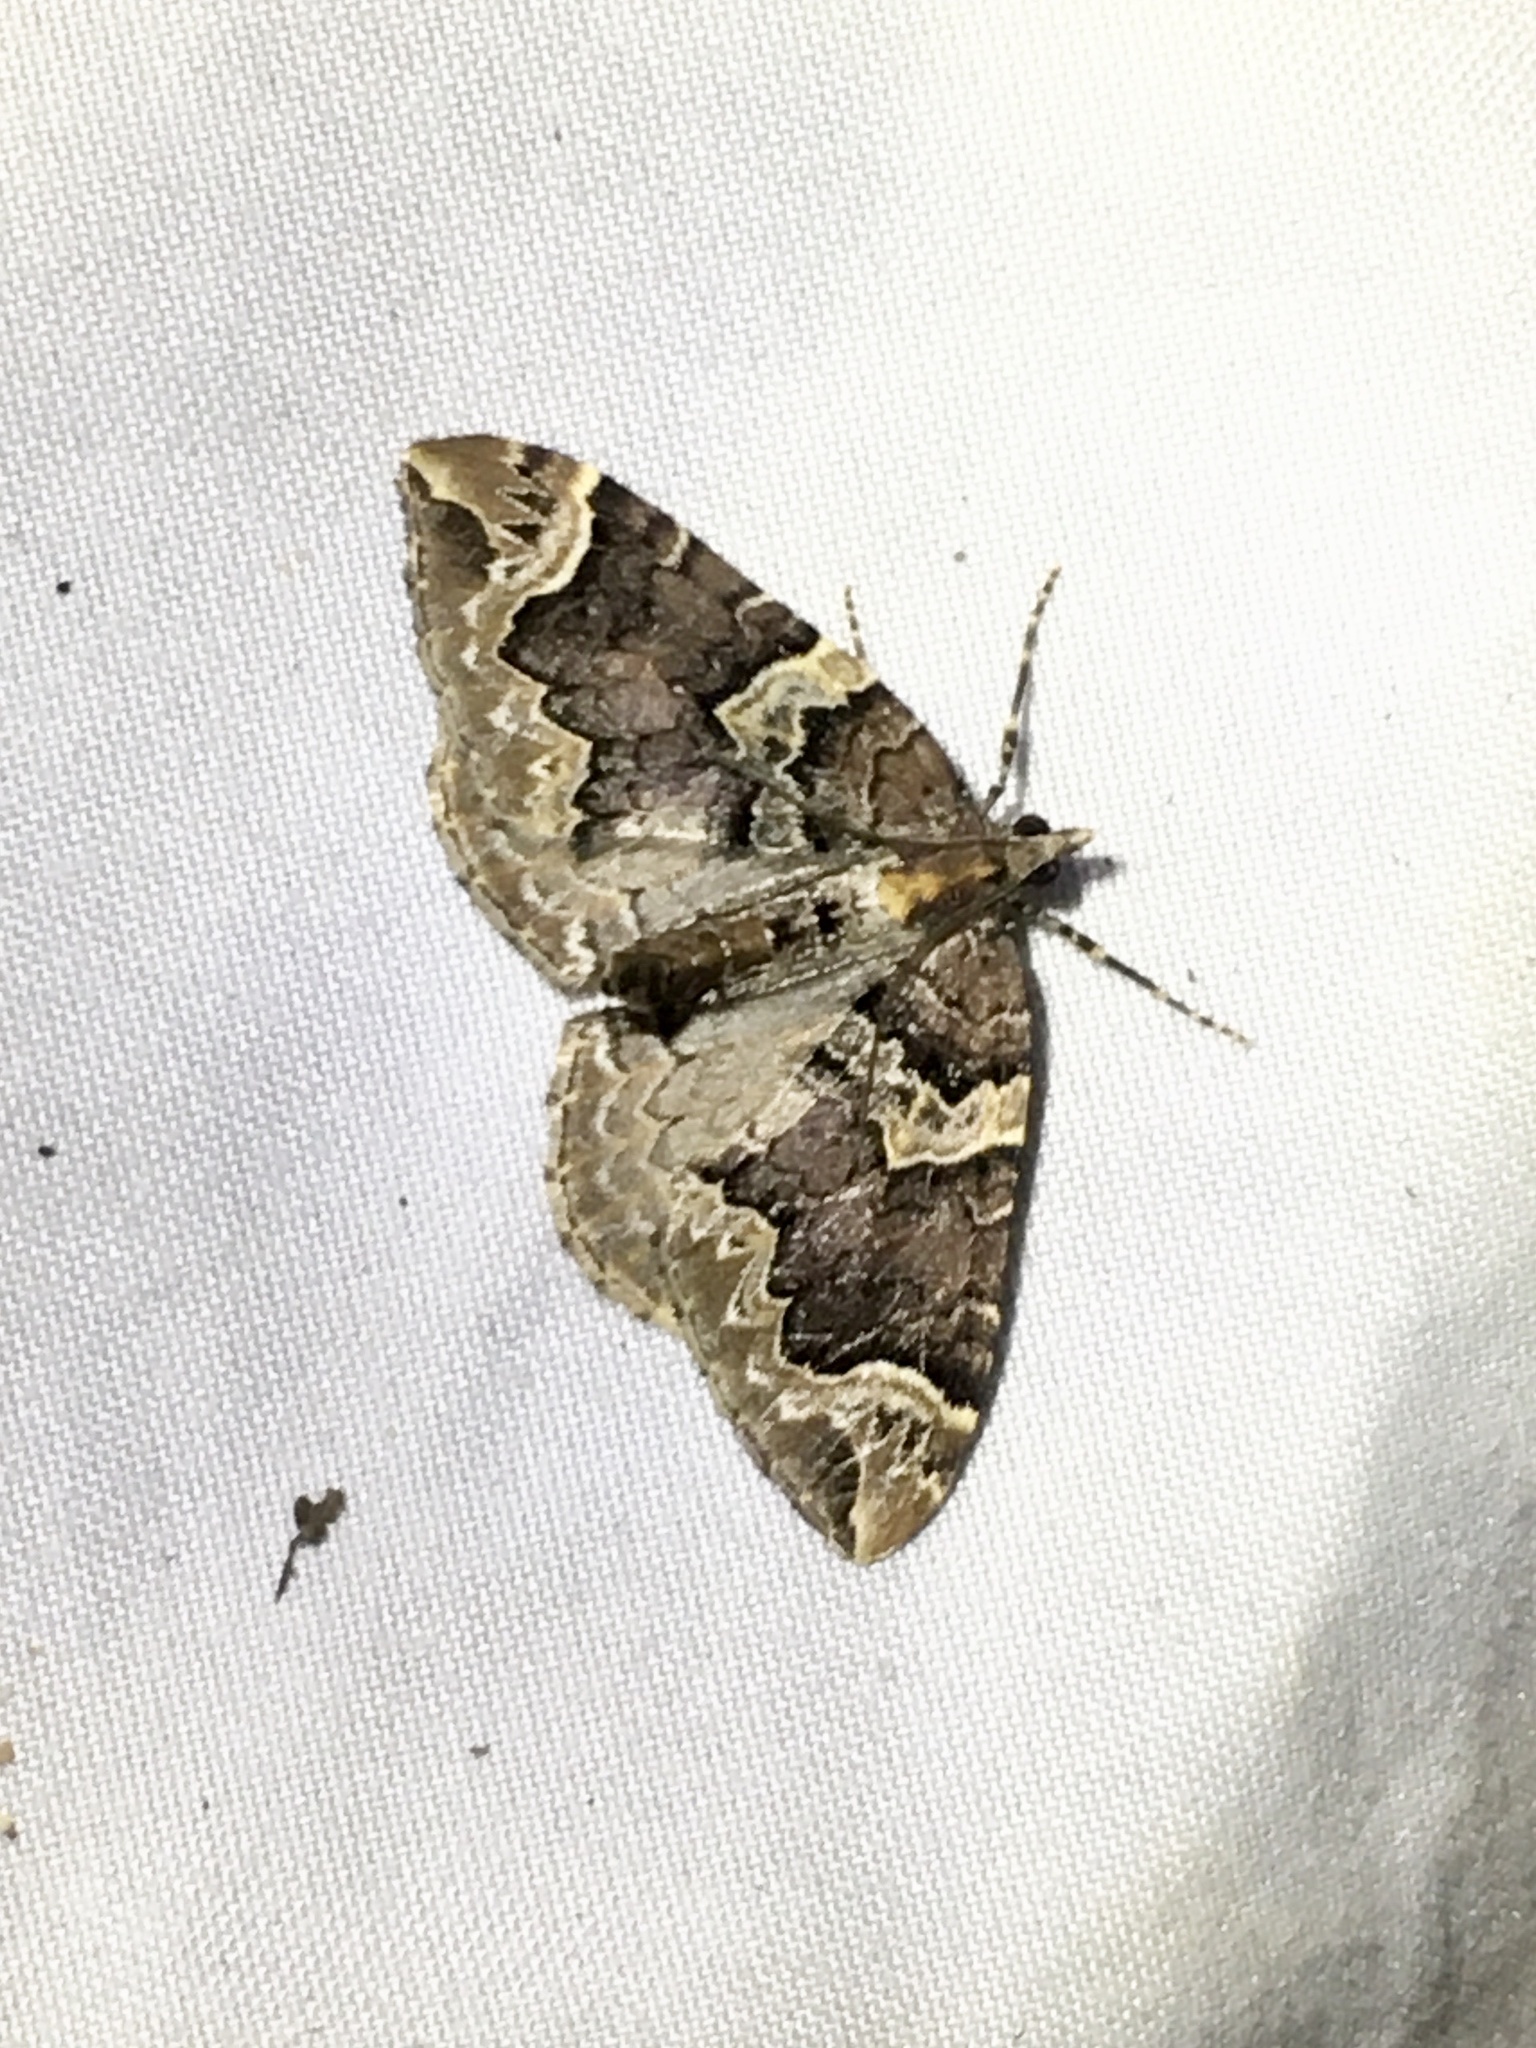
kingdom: Animalia
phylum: Arthropoda
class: Insecta
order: Lepidoptera
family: Geometridae
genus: Eulithis
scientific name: Eulithis serrataria
